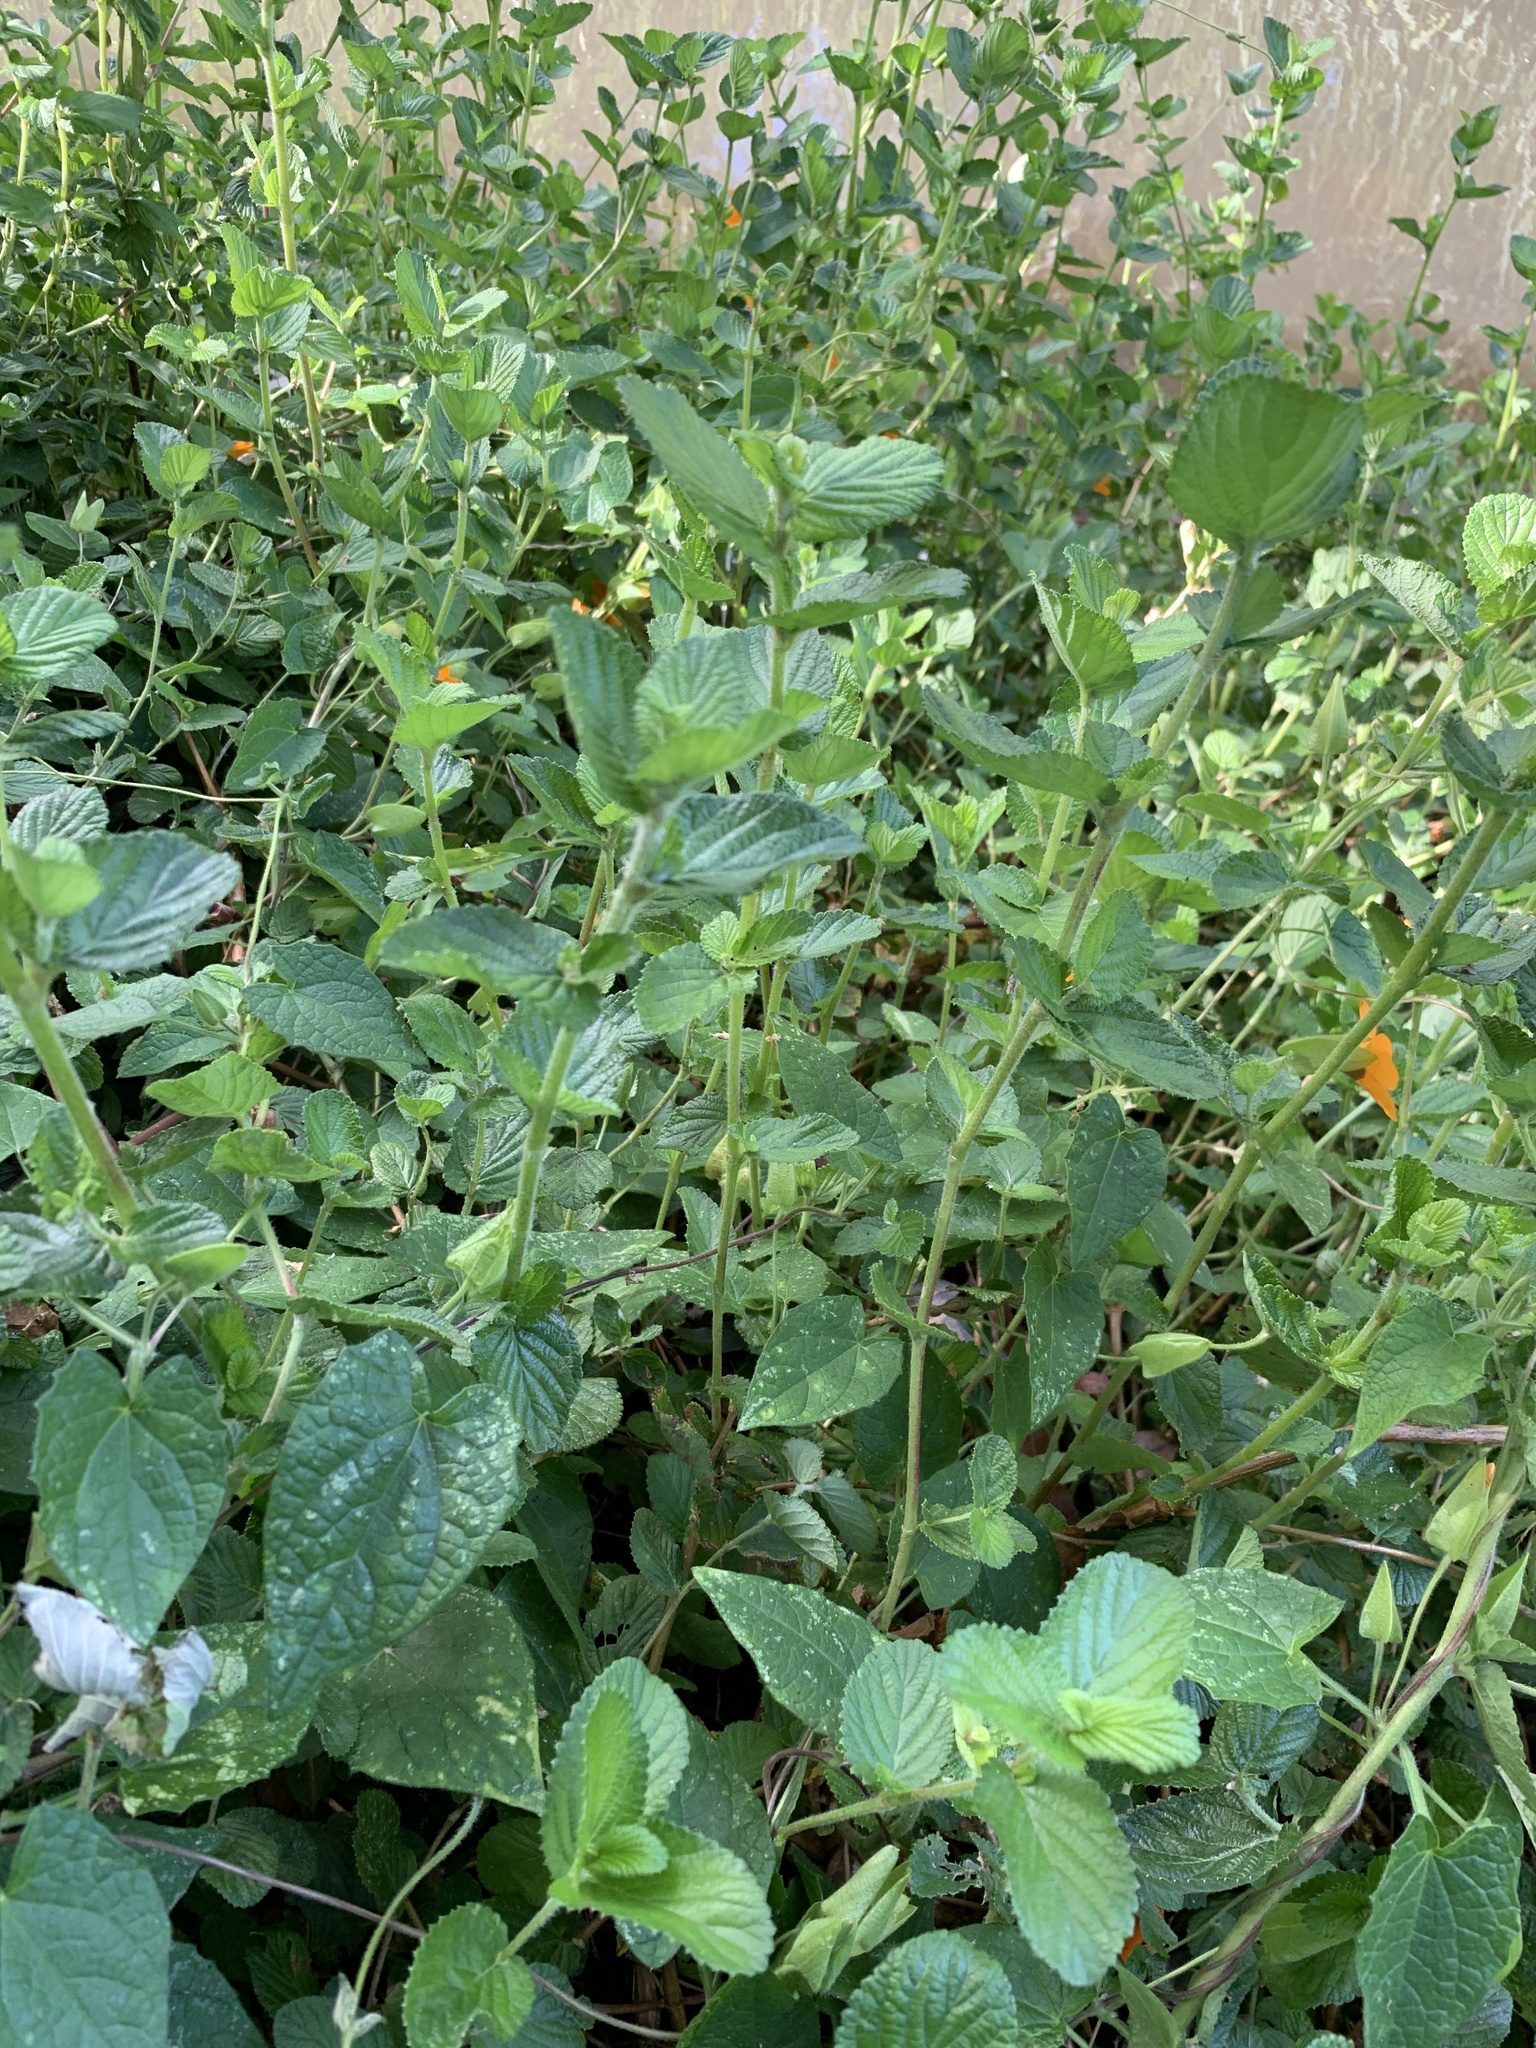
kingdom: Plantae
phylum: Tracheophyta
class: Magnoliopsida
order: Rosales
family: Rosaceae
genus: Cliffortia
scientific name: Cliffortia odorata
